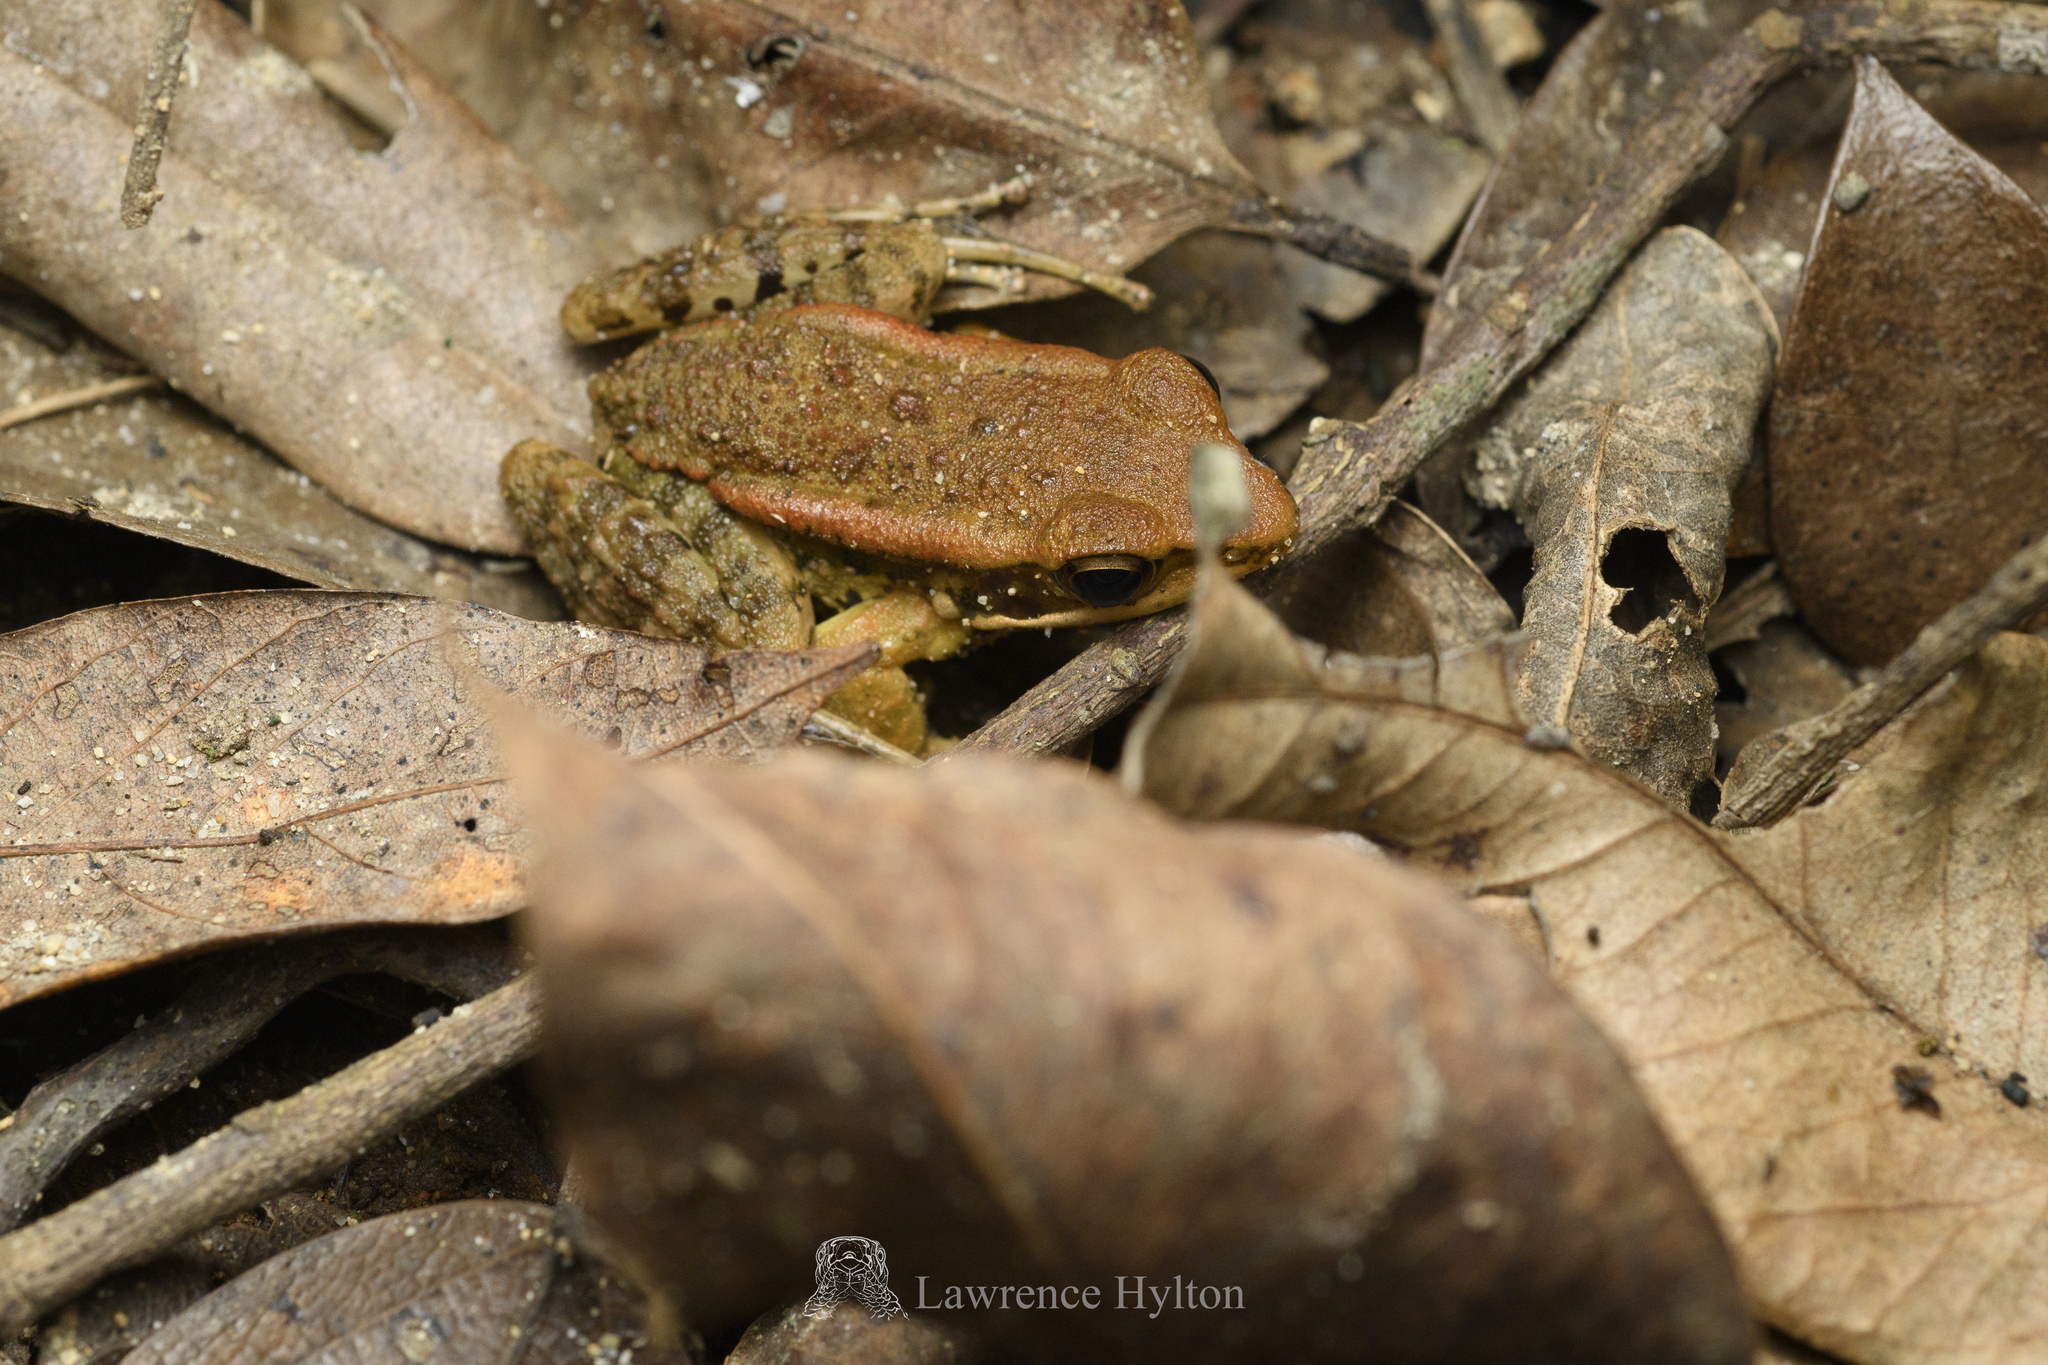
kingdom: Animalia
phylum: Chordata
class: Amphibia
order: Anura
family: Ranidae
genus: Hylarana
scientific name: Hylarana latouchii
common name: Broad-folded frog
